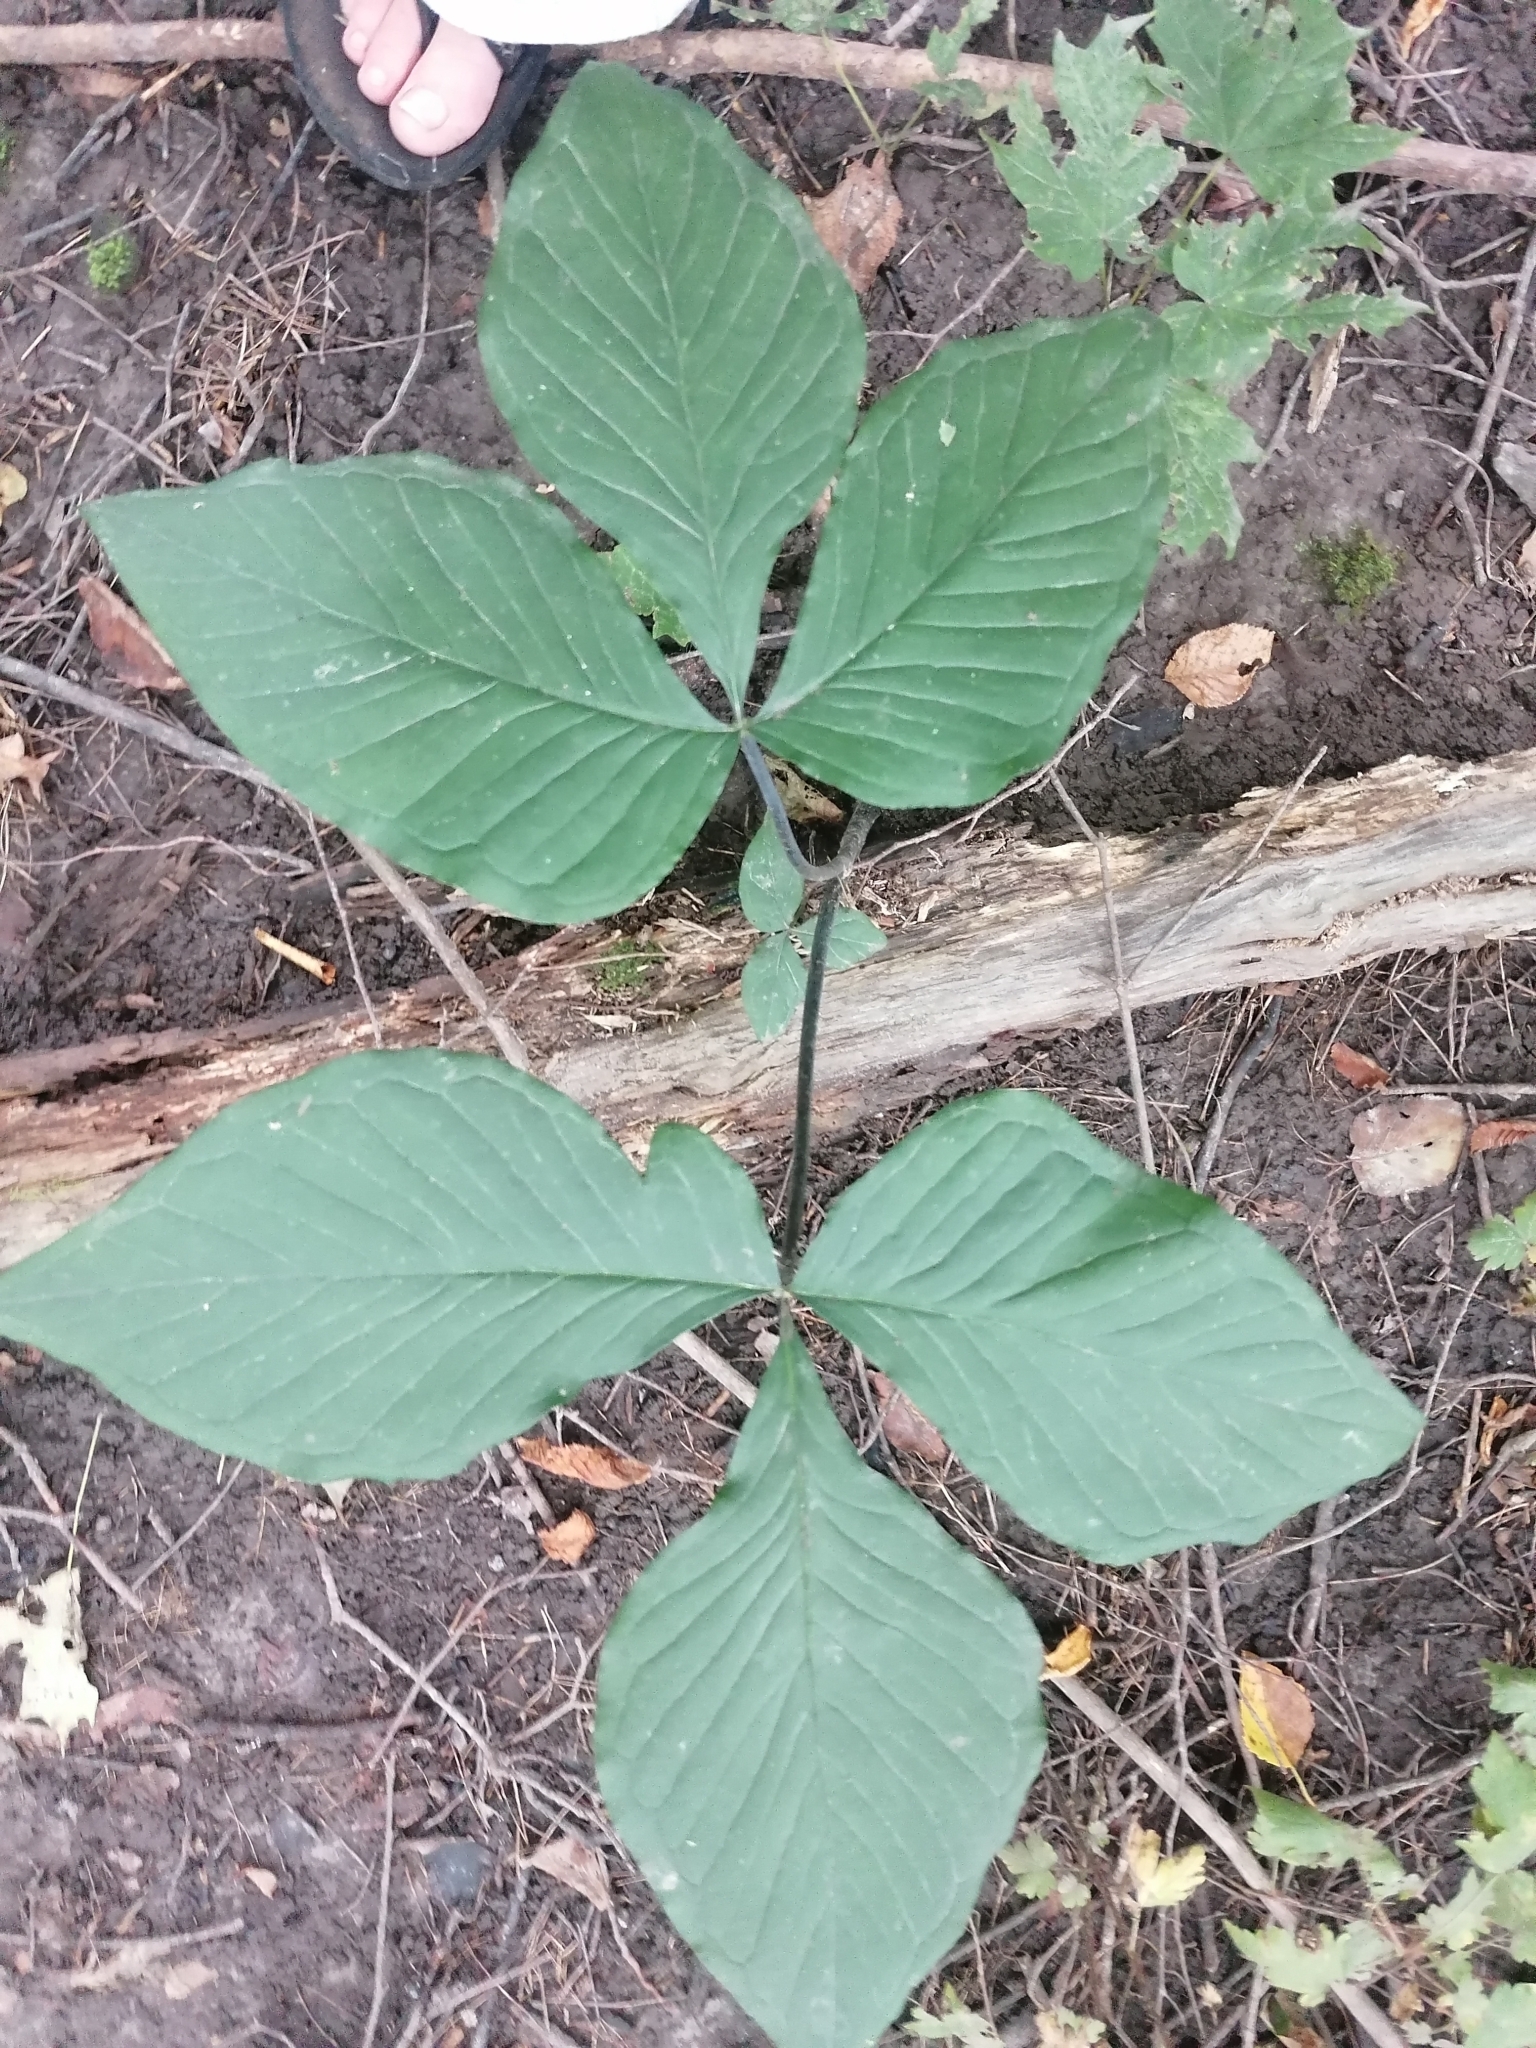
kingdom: Plantae
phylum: Tracheophyta
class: Liliopsida
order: Alismatales
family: Araceae
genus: Arisaema
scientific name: Arisaema triphyllum
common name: Jack-in-the-pulpit
